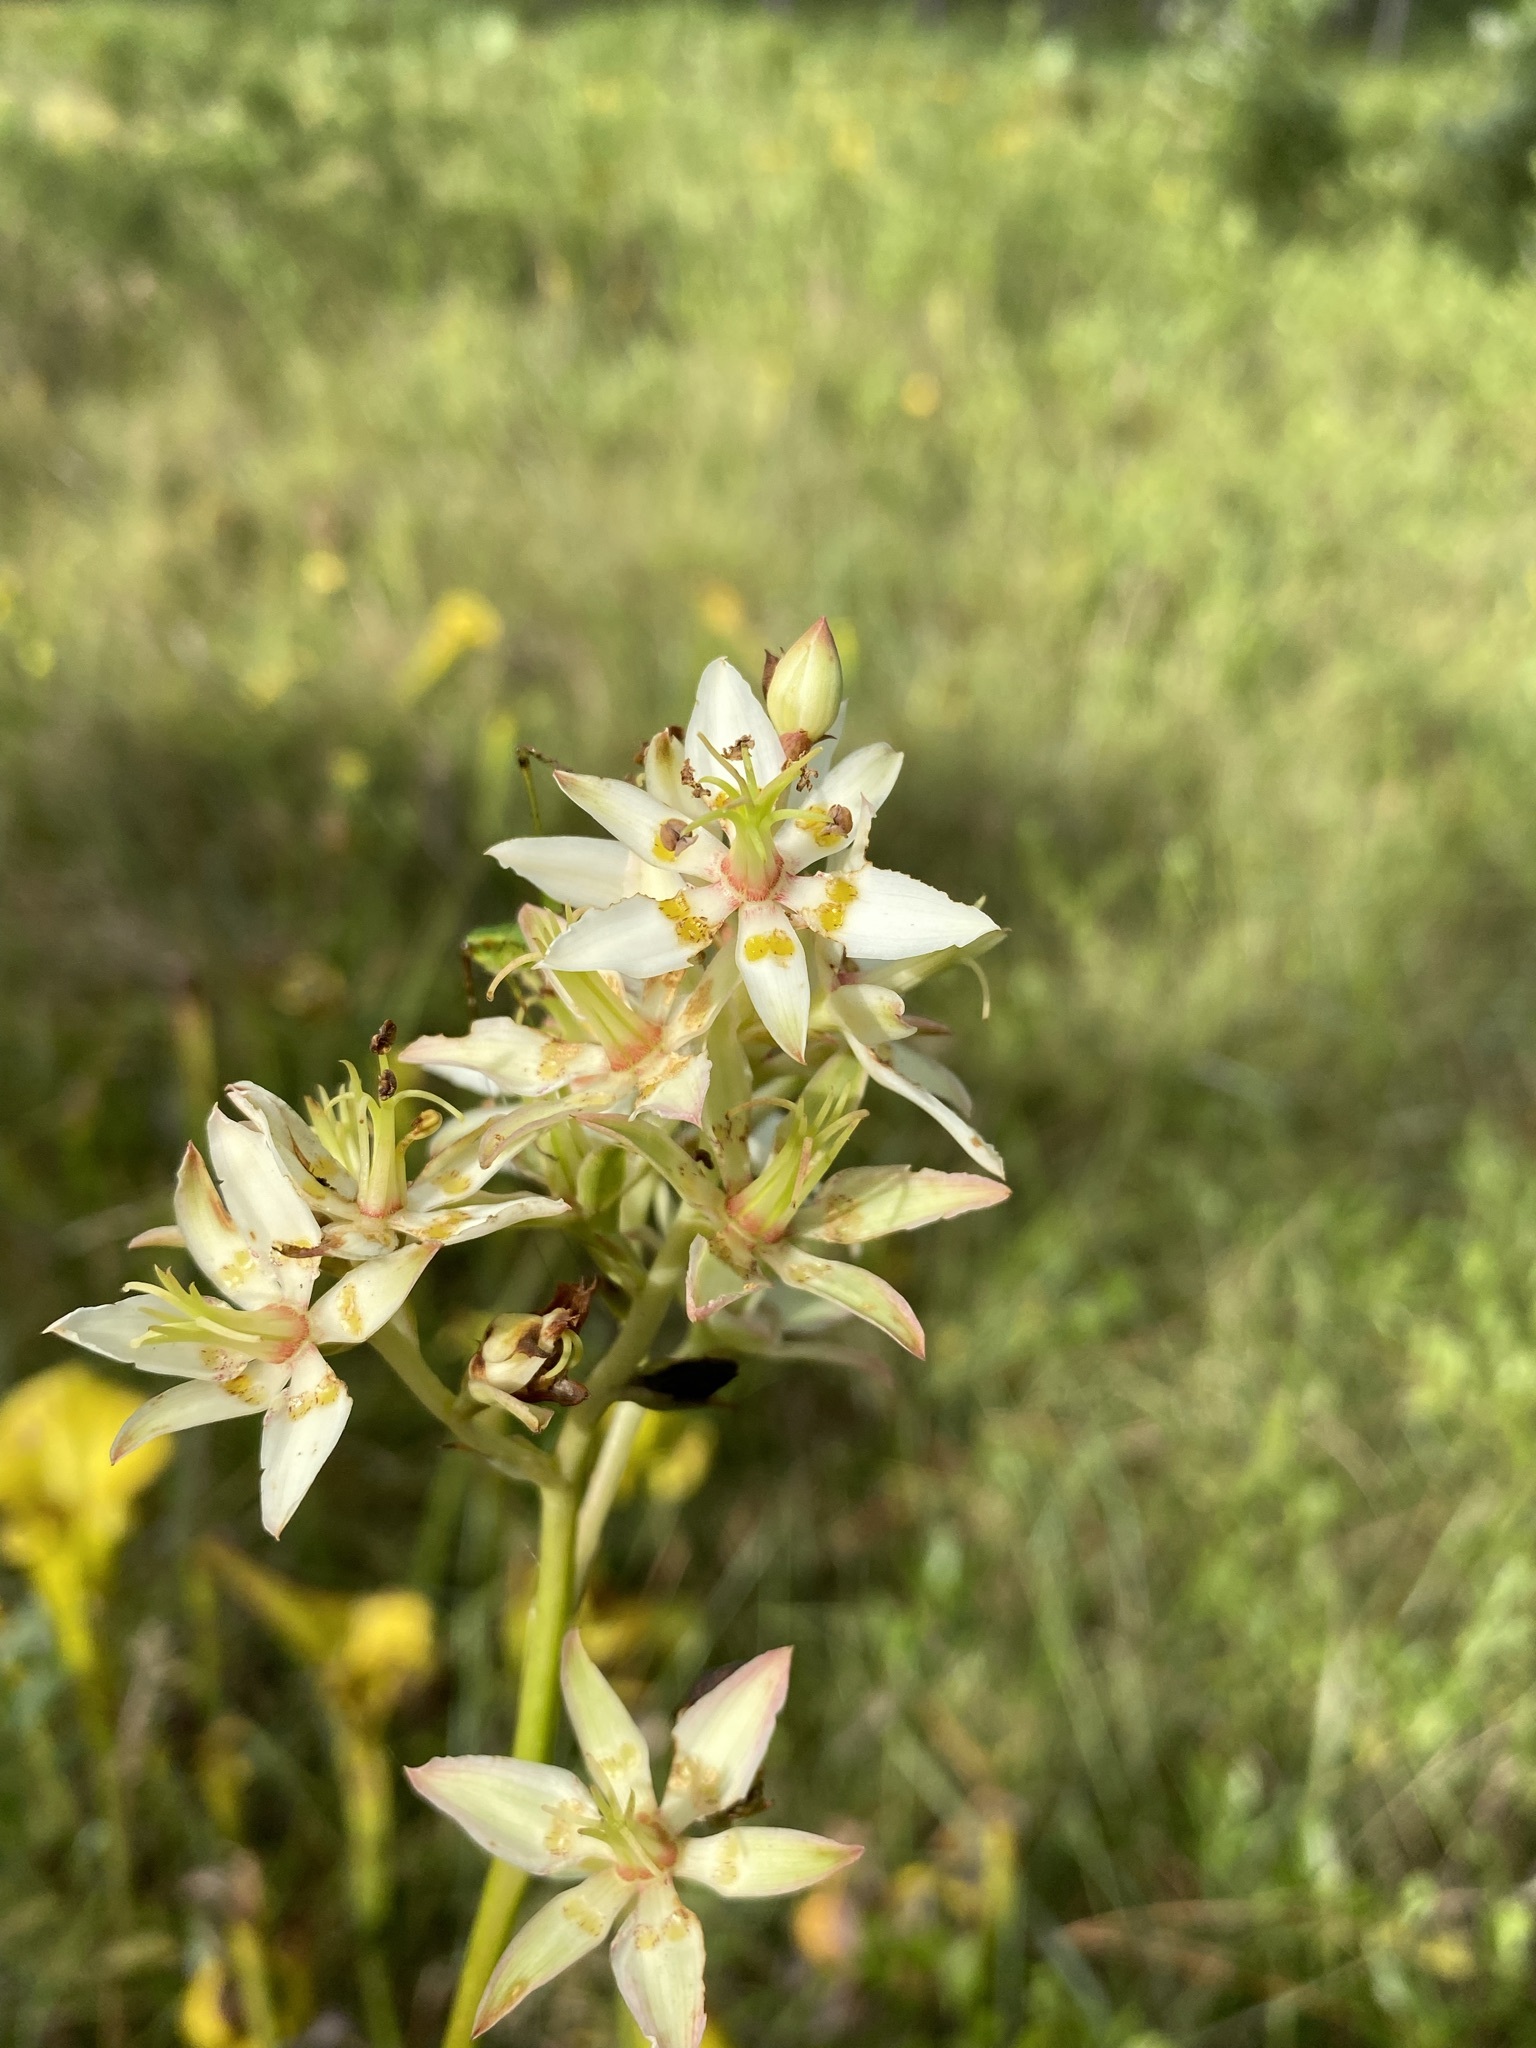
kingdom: Plantae
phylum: Tracheophyta
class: Liliopsida
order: Liliales
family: Melanthiaceae
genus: Zigadenus
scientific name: Zigadenus glaberrimus
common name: Sandbog death camas
